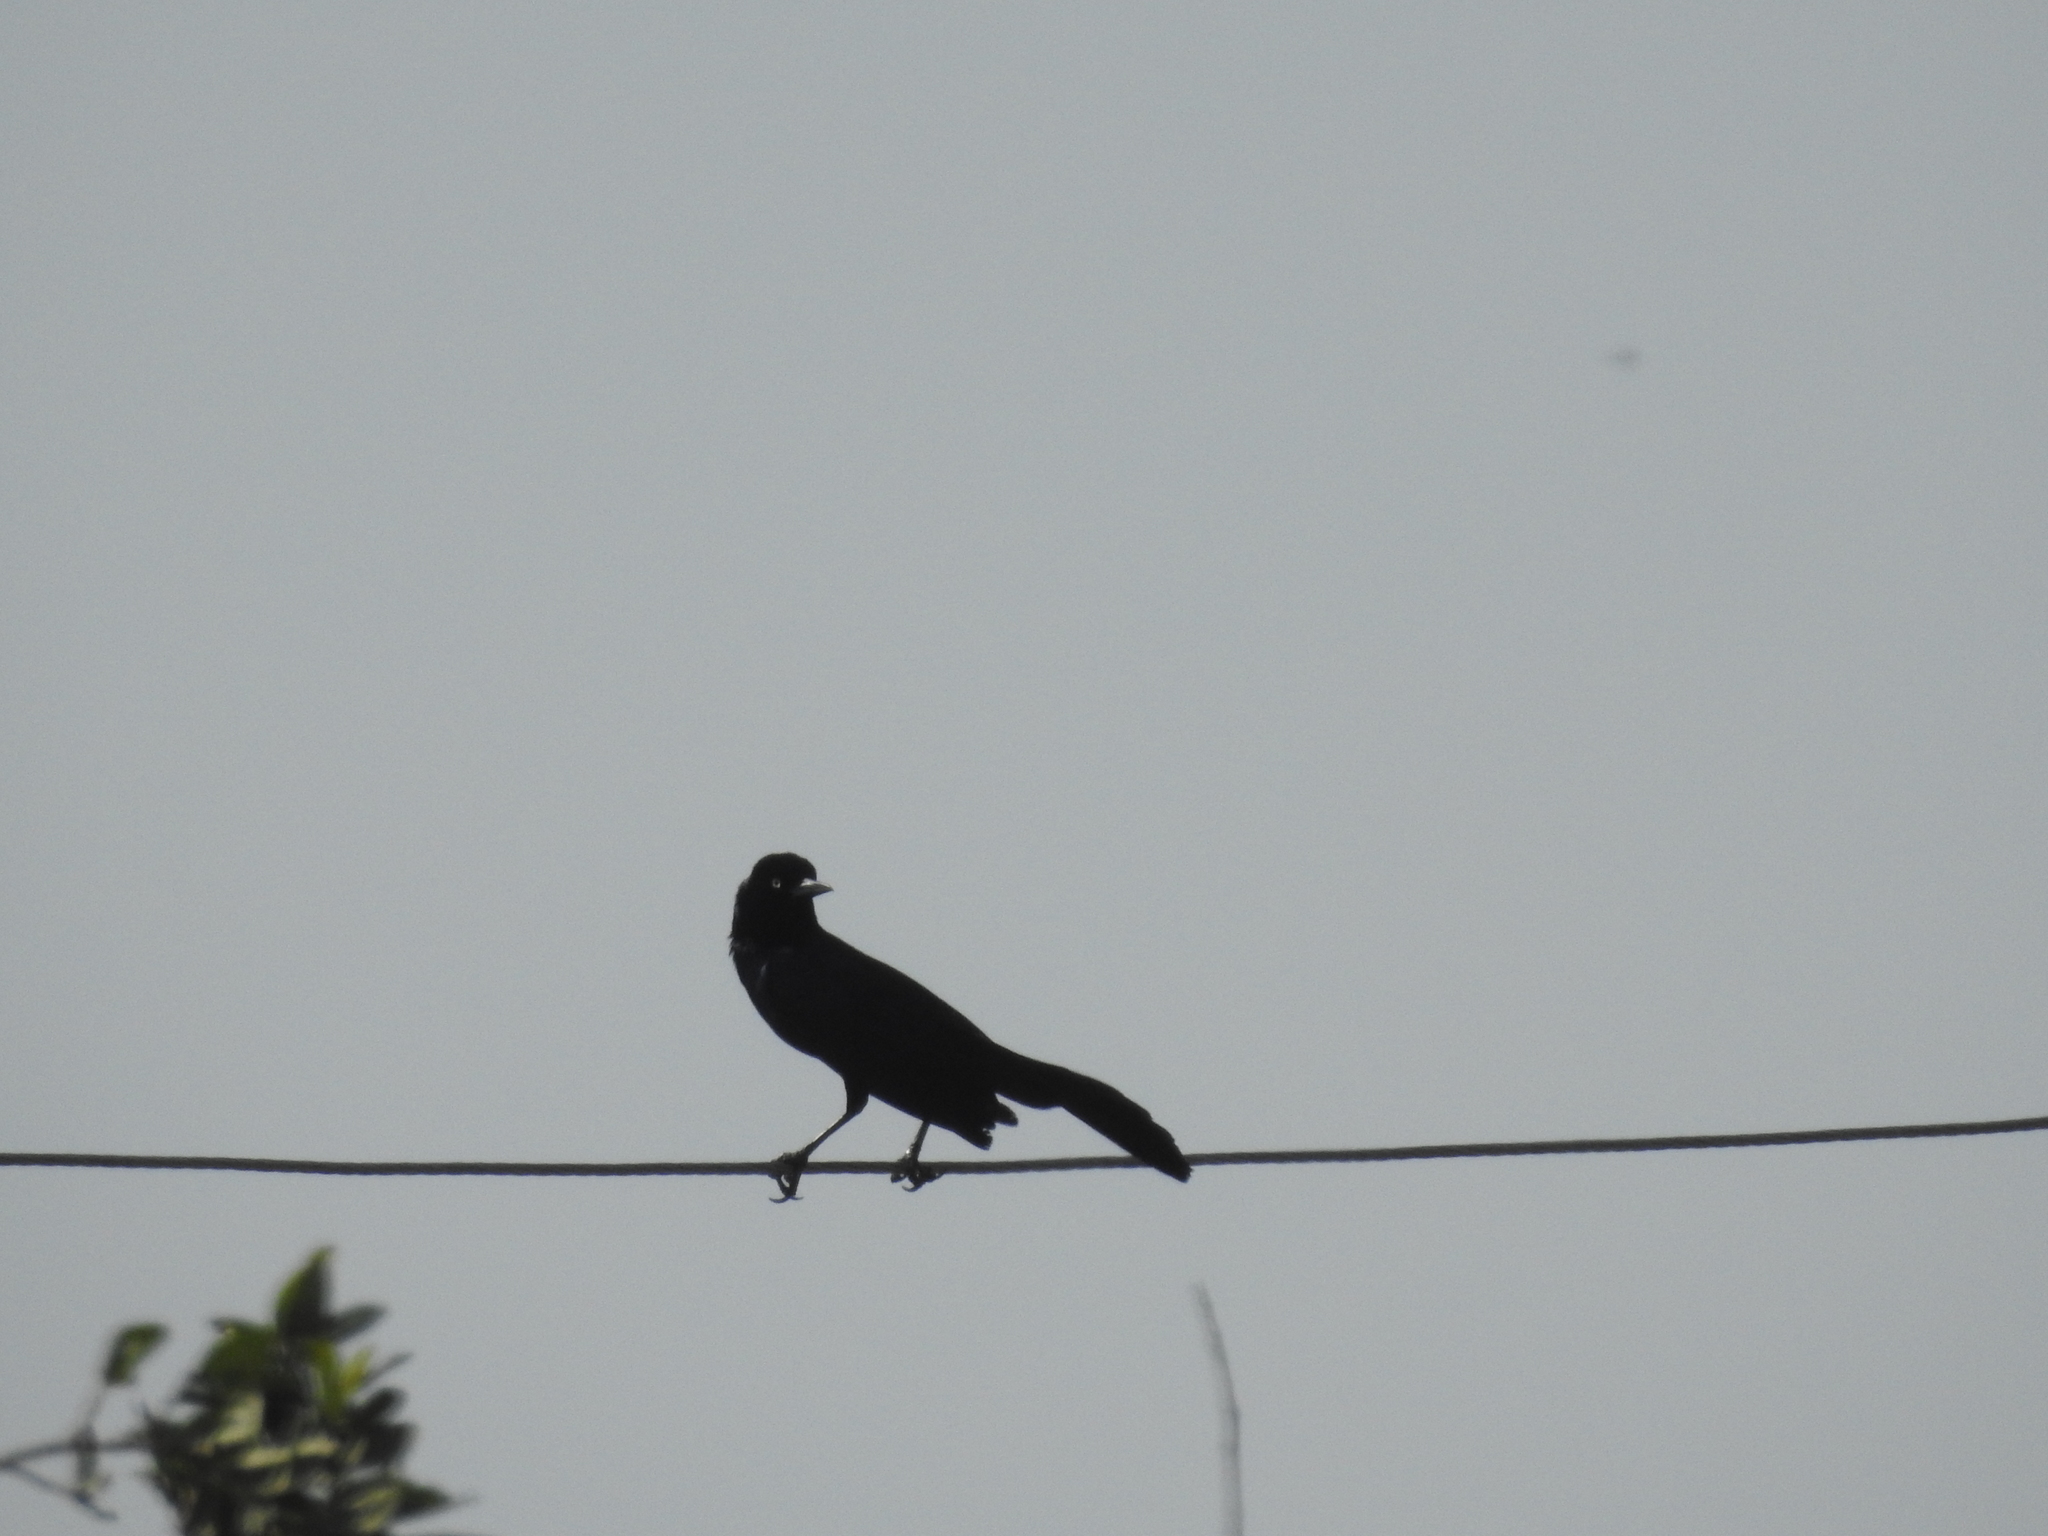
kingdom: Animalia
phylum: Chordata
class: Aves
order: Passeriformes
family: Icteridae
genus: Quiscalus
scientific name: Quiscalus major
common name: Boat-tailed grackle
